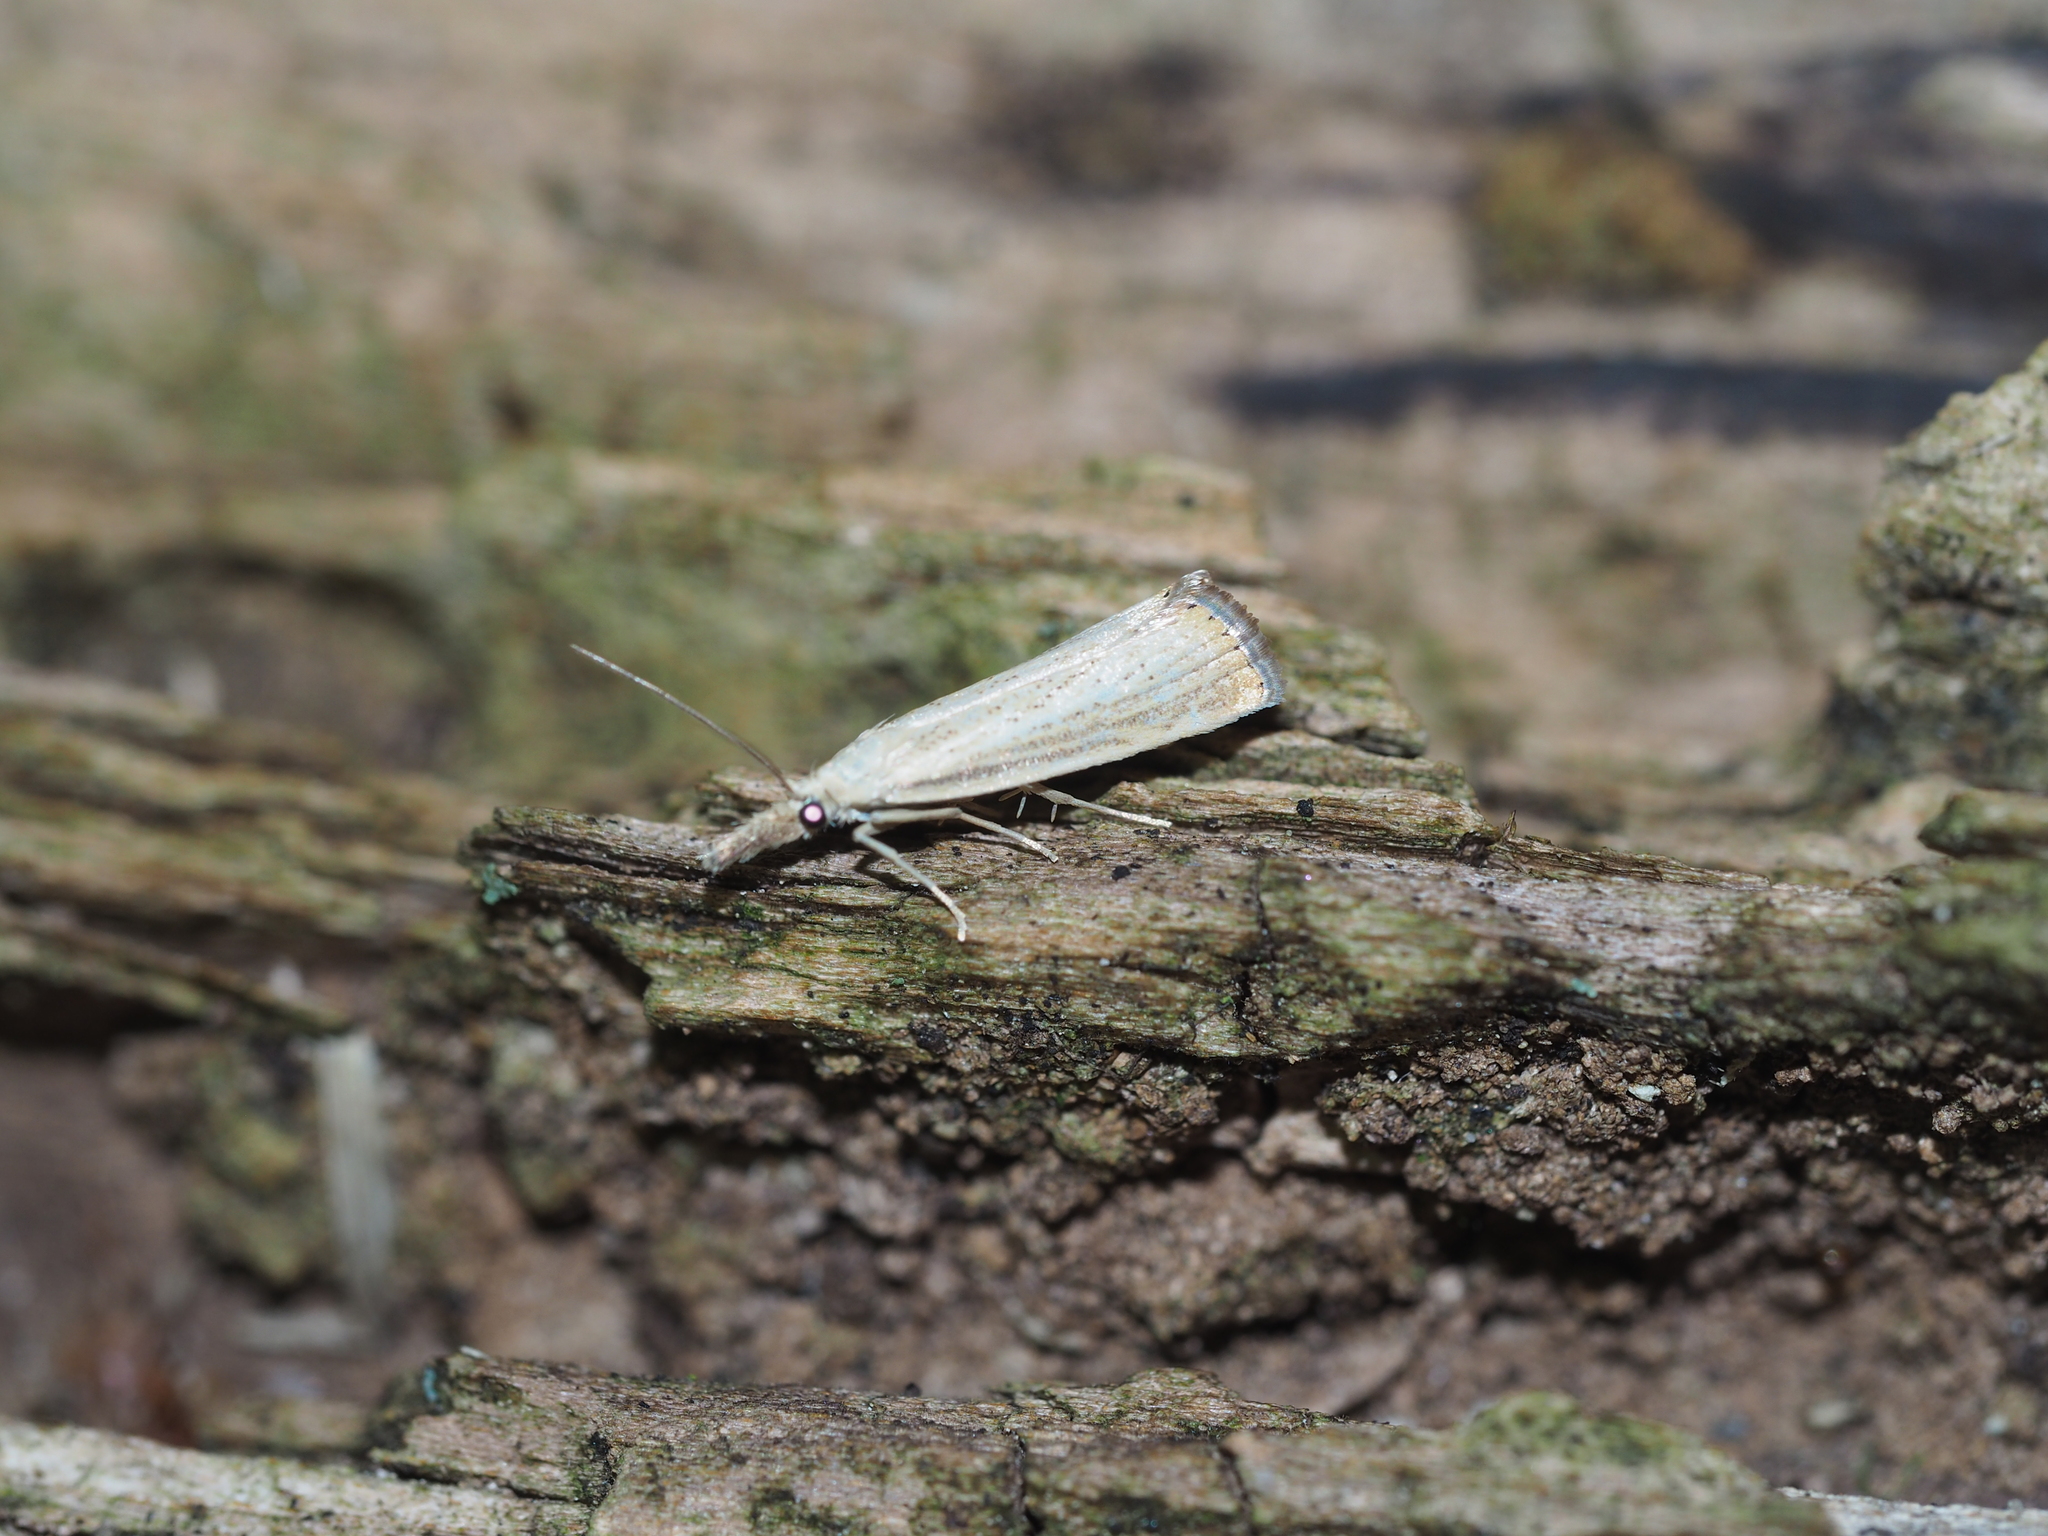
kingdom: Animalia
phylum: Arthropoda
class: Insecta
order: Lepidoptera
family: Crambidae
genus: Agriphila
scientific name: Agriphila straminella
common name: Straw grass-veneer
